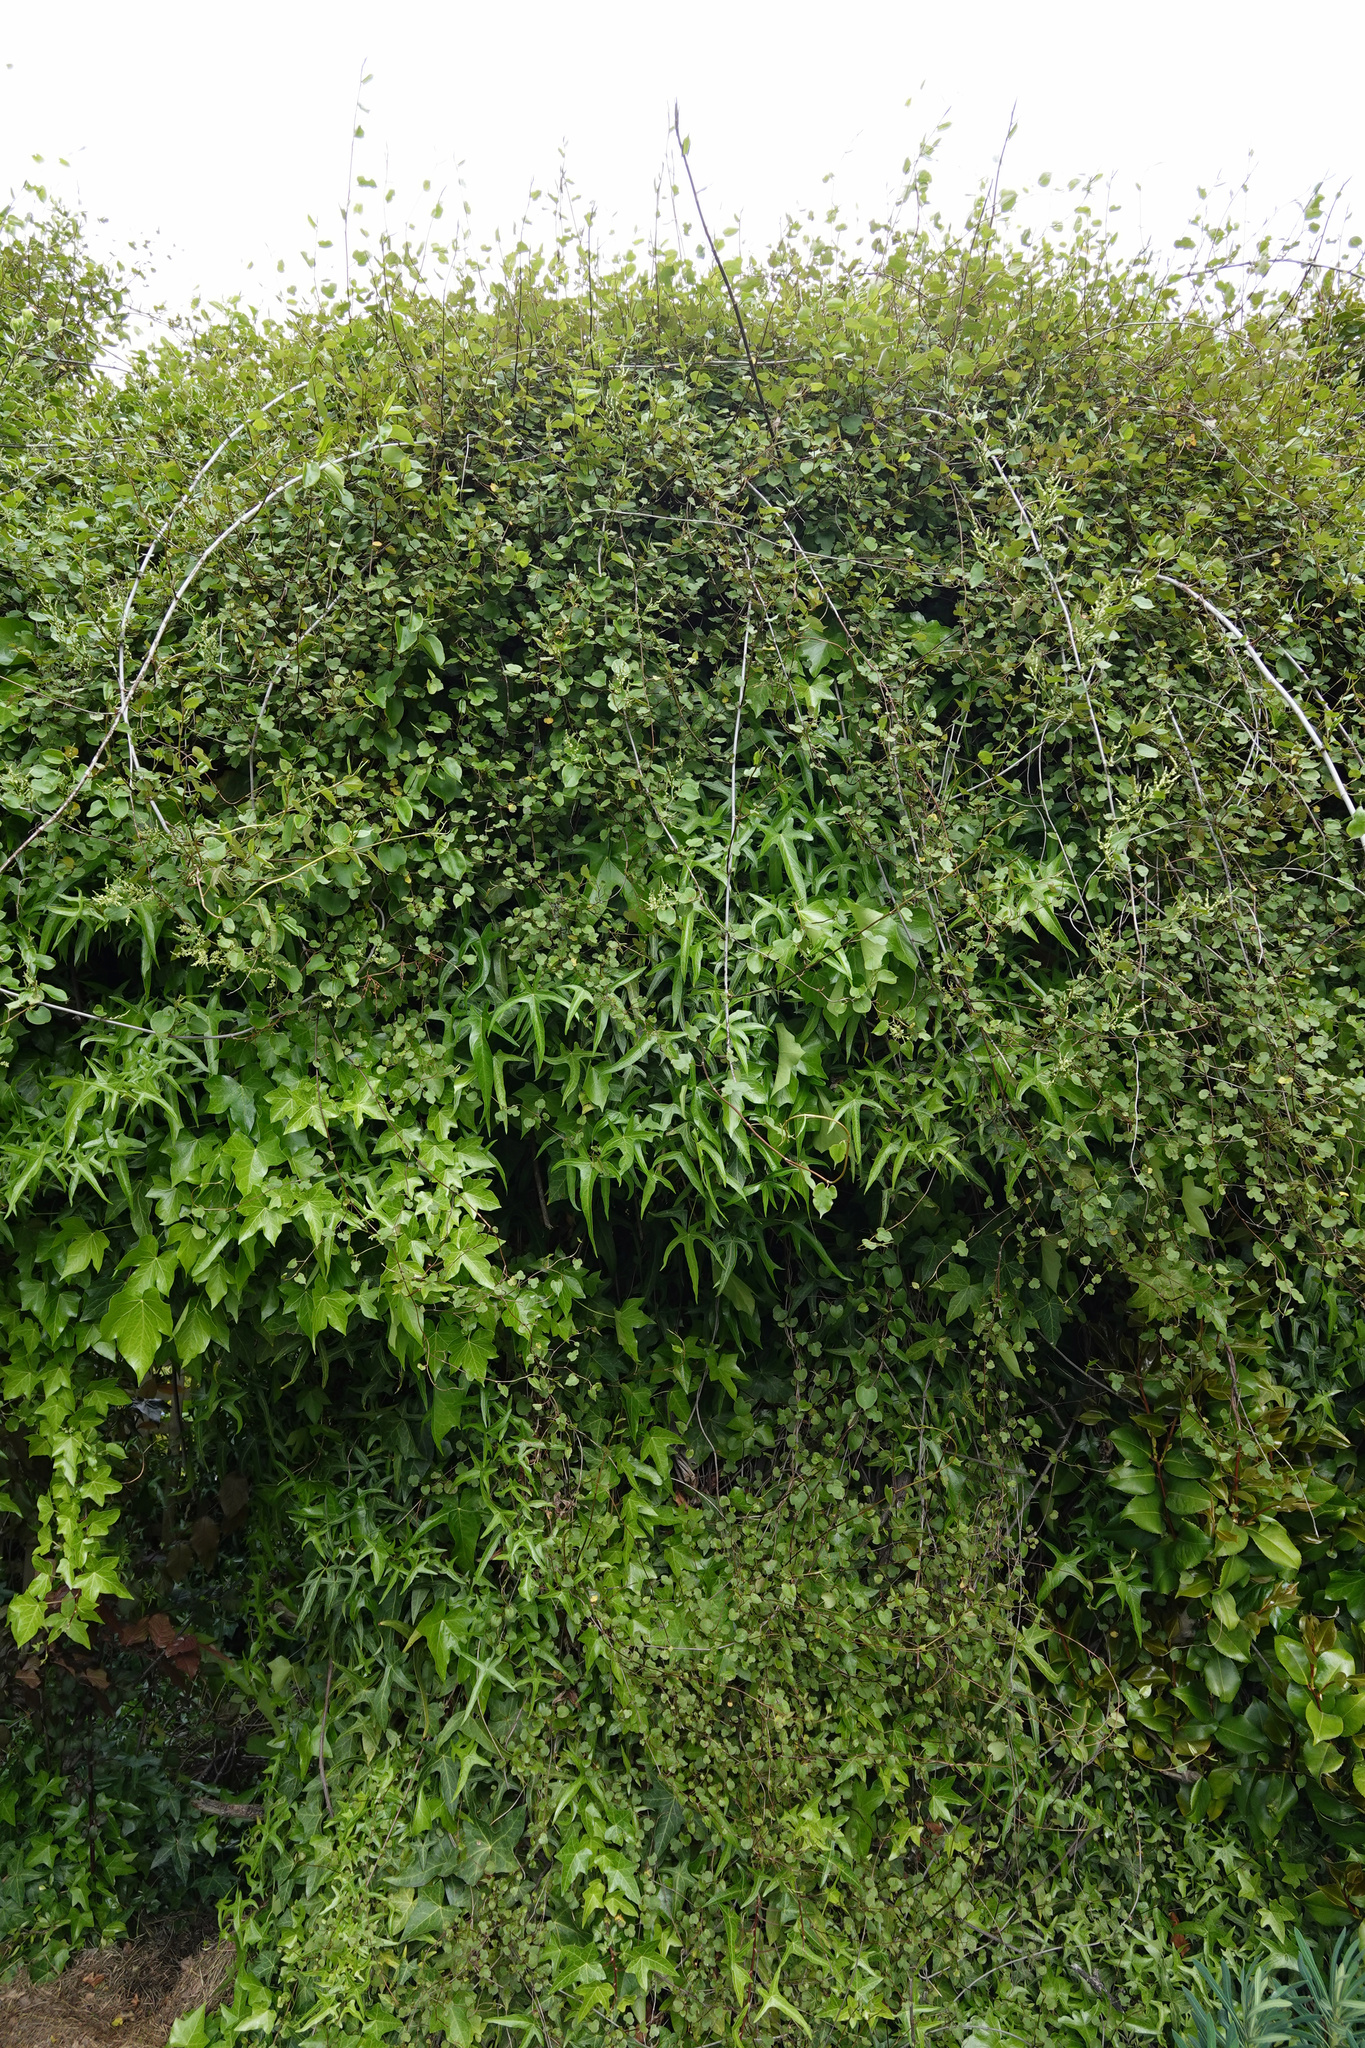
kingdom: Plantae
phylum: Tracheophyta
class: Magnoliopsida
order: Caryophyllales
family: Polygonaceae
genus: Muehlenbeckia
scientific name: Muehlenbeckia australis
